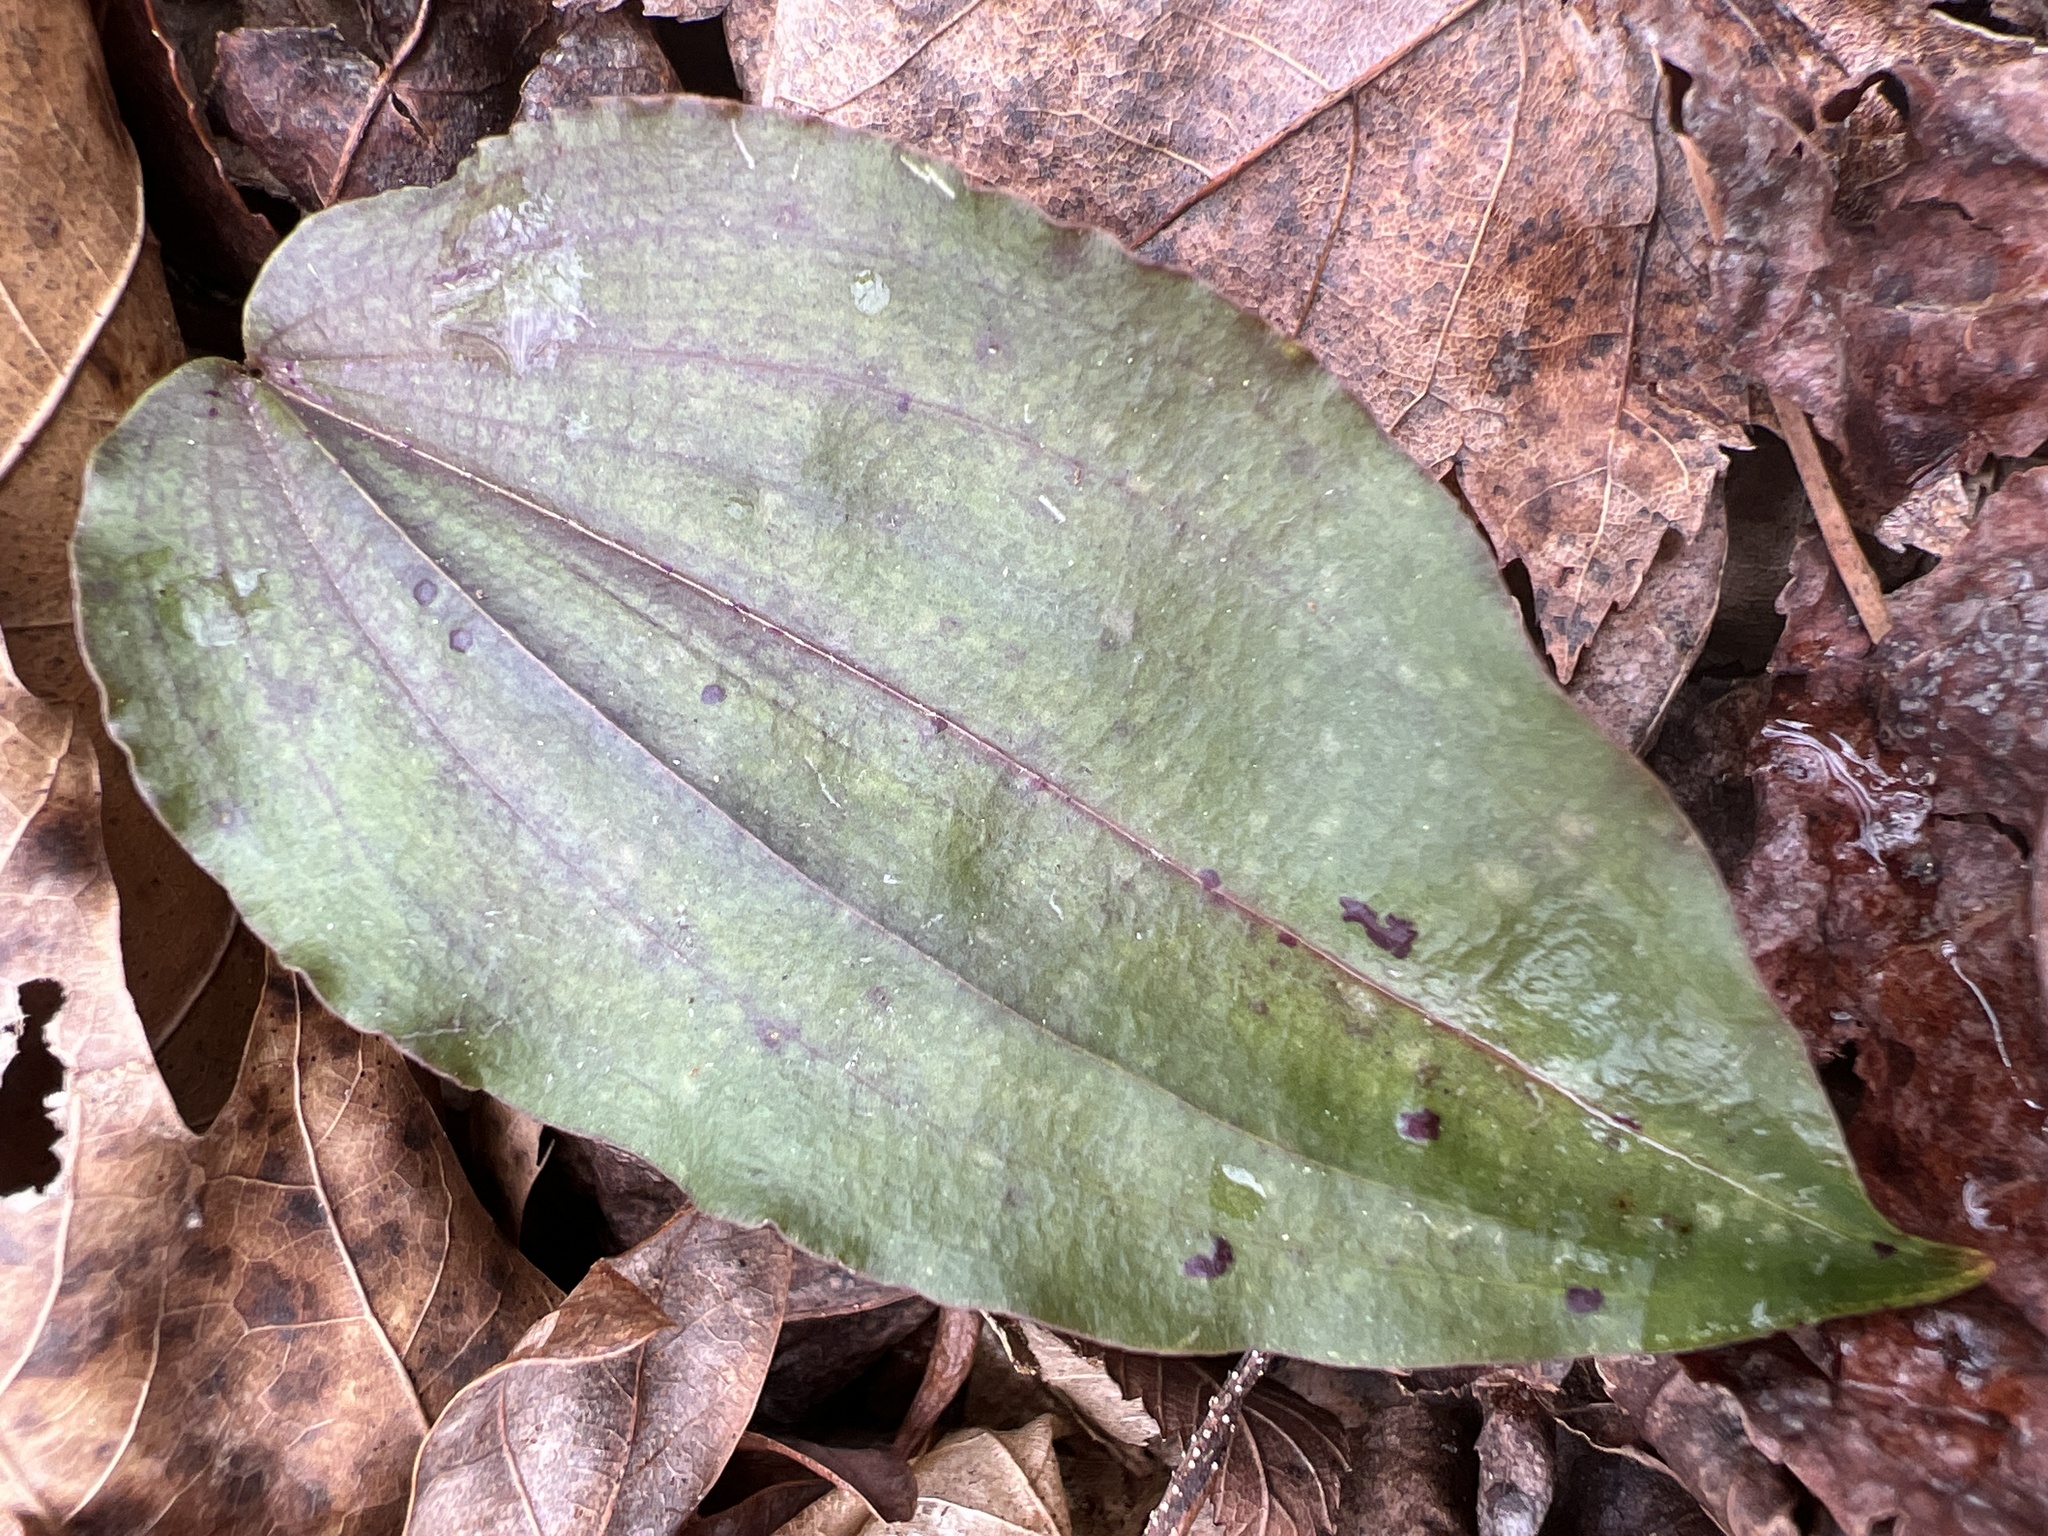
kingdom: Plantae
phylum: Tracheophyta
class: Liliopsida
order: Asparagales
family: Orchidaceae
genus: Tipularia
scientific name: Tipularia discolor
